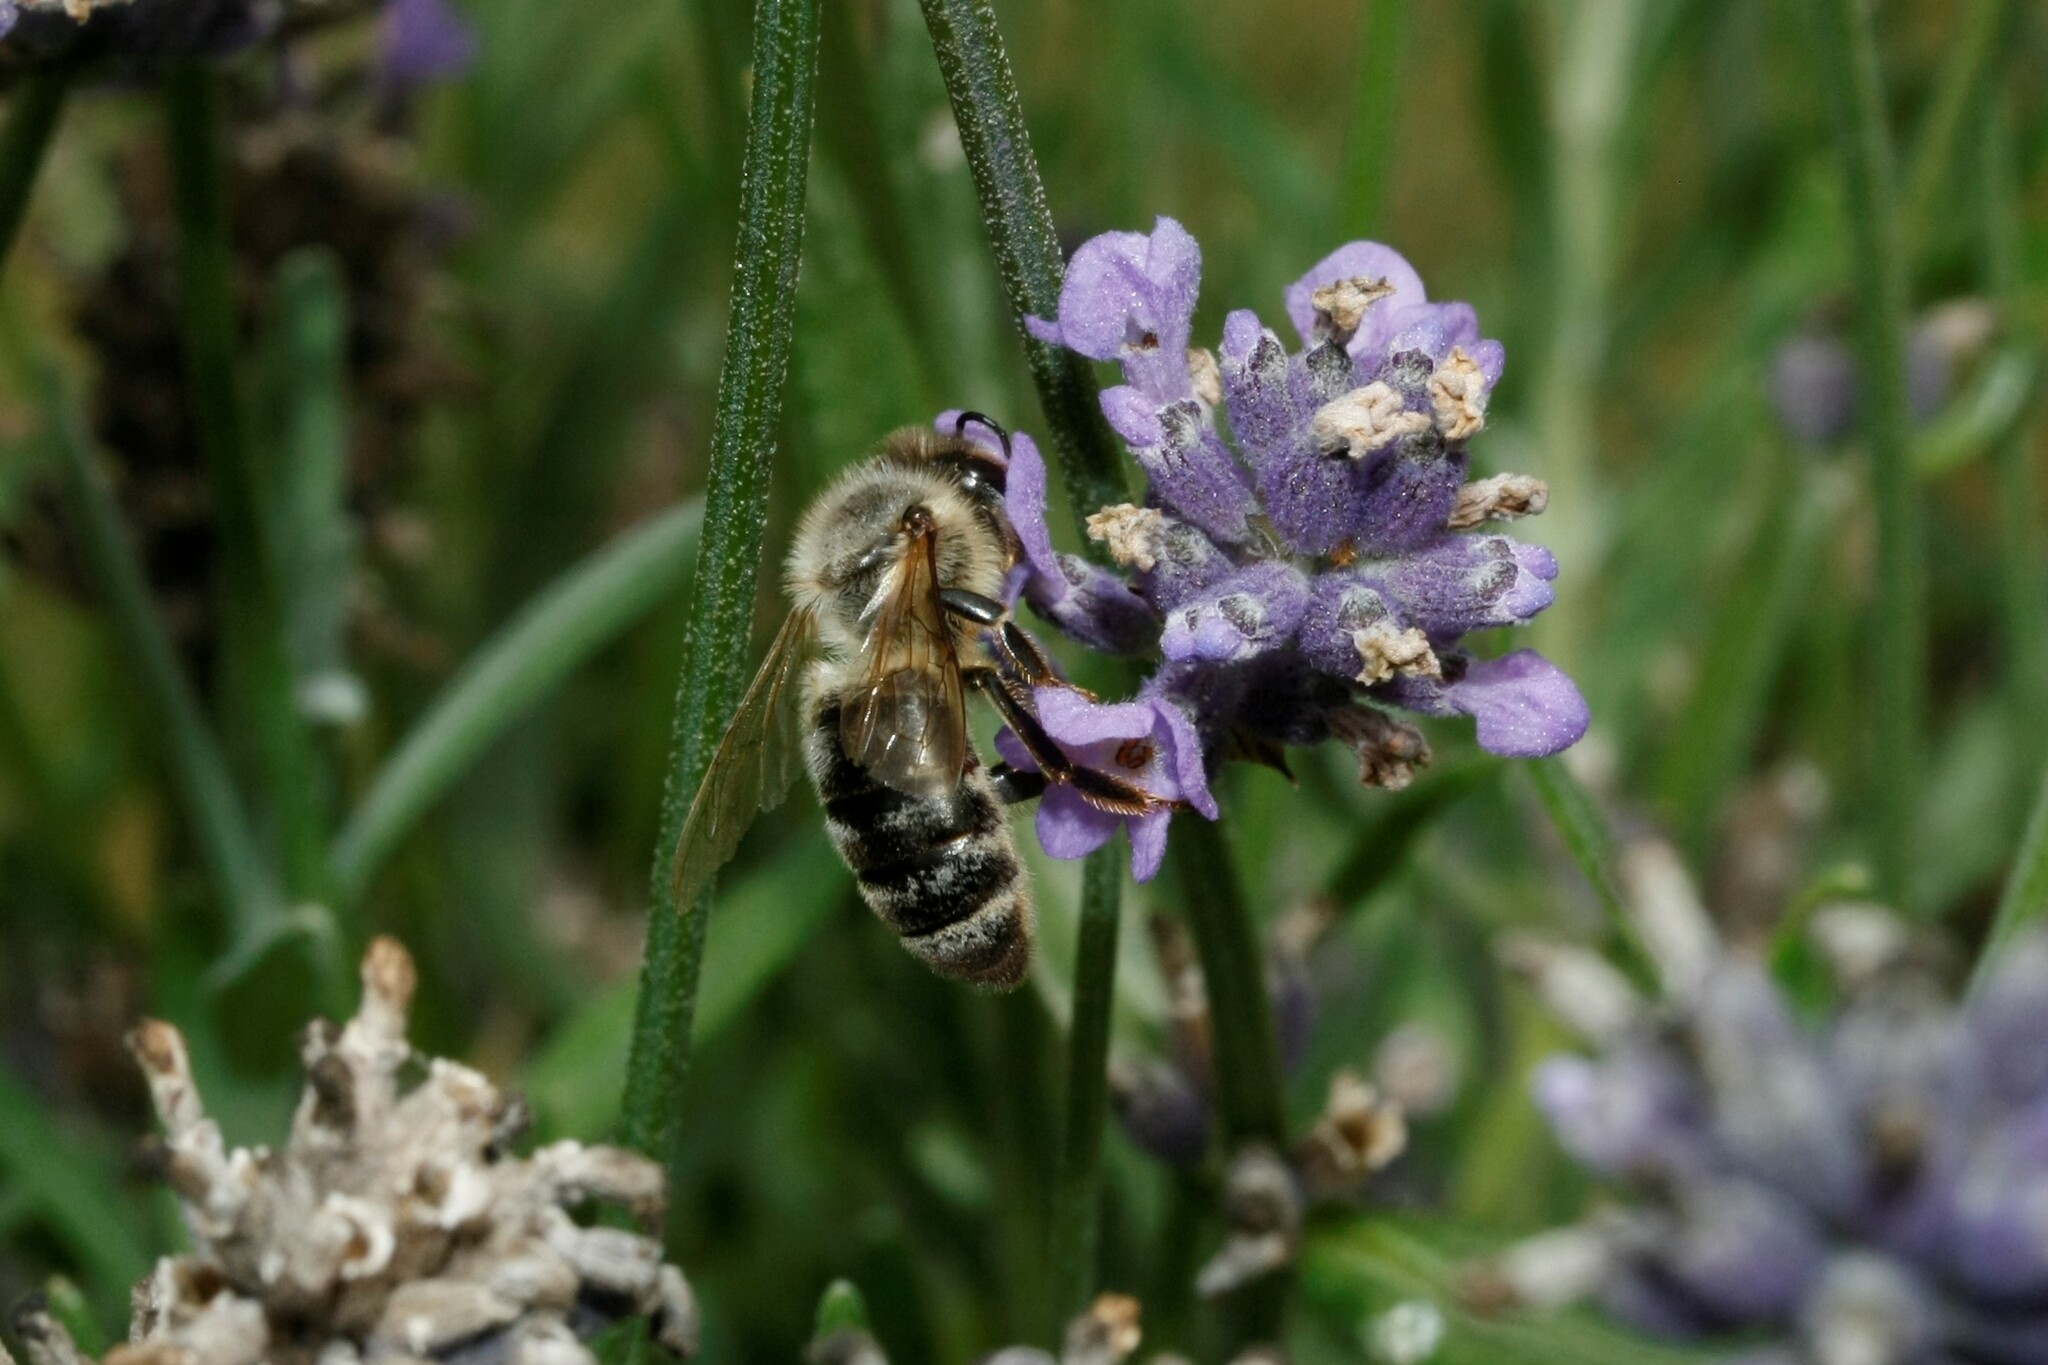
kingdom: Animalia
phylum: Arthropoda
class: Insecta
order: Hymenoptera
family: Apidae
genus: Apis
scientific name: Apis mellifera
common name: Honey bee
